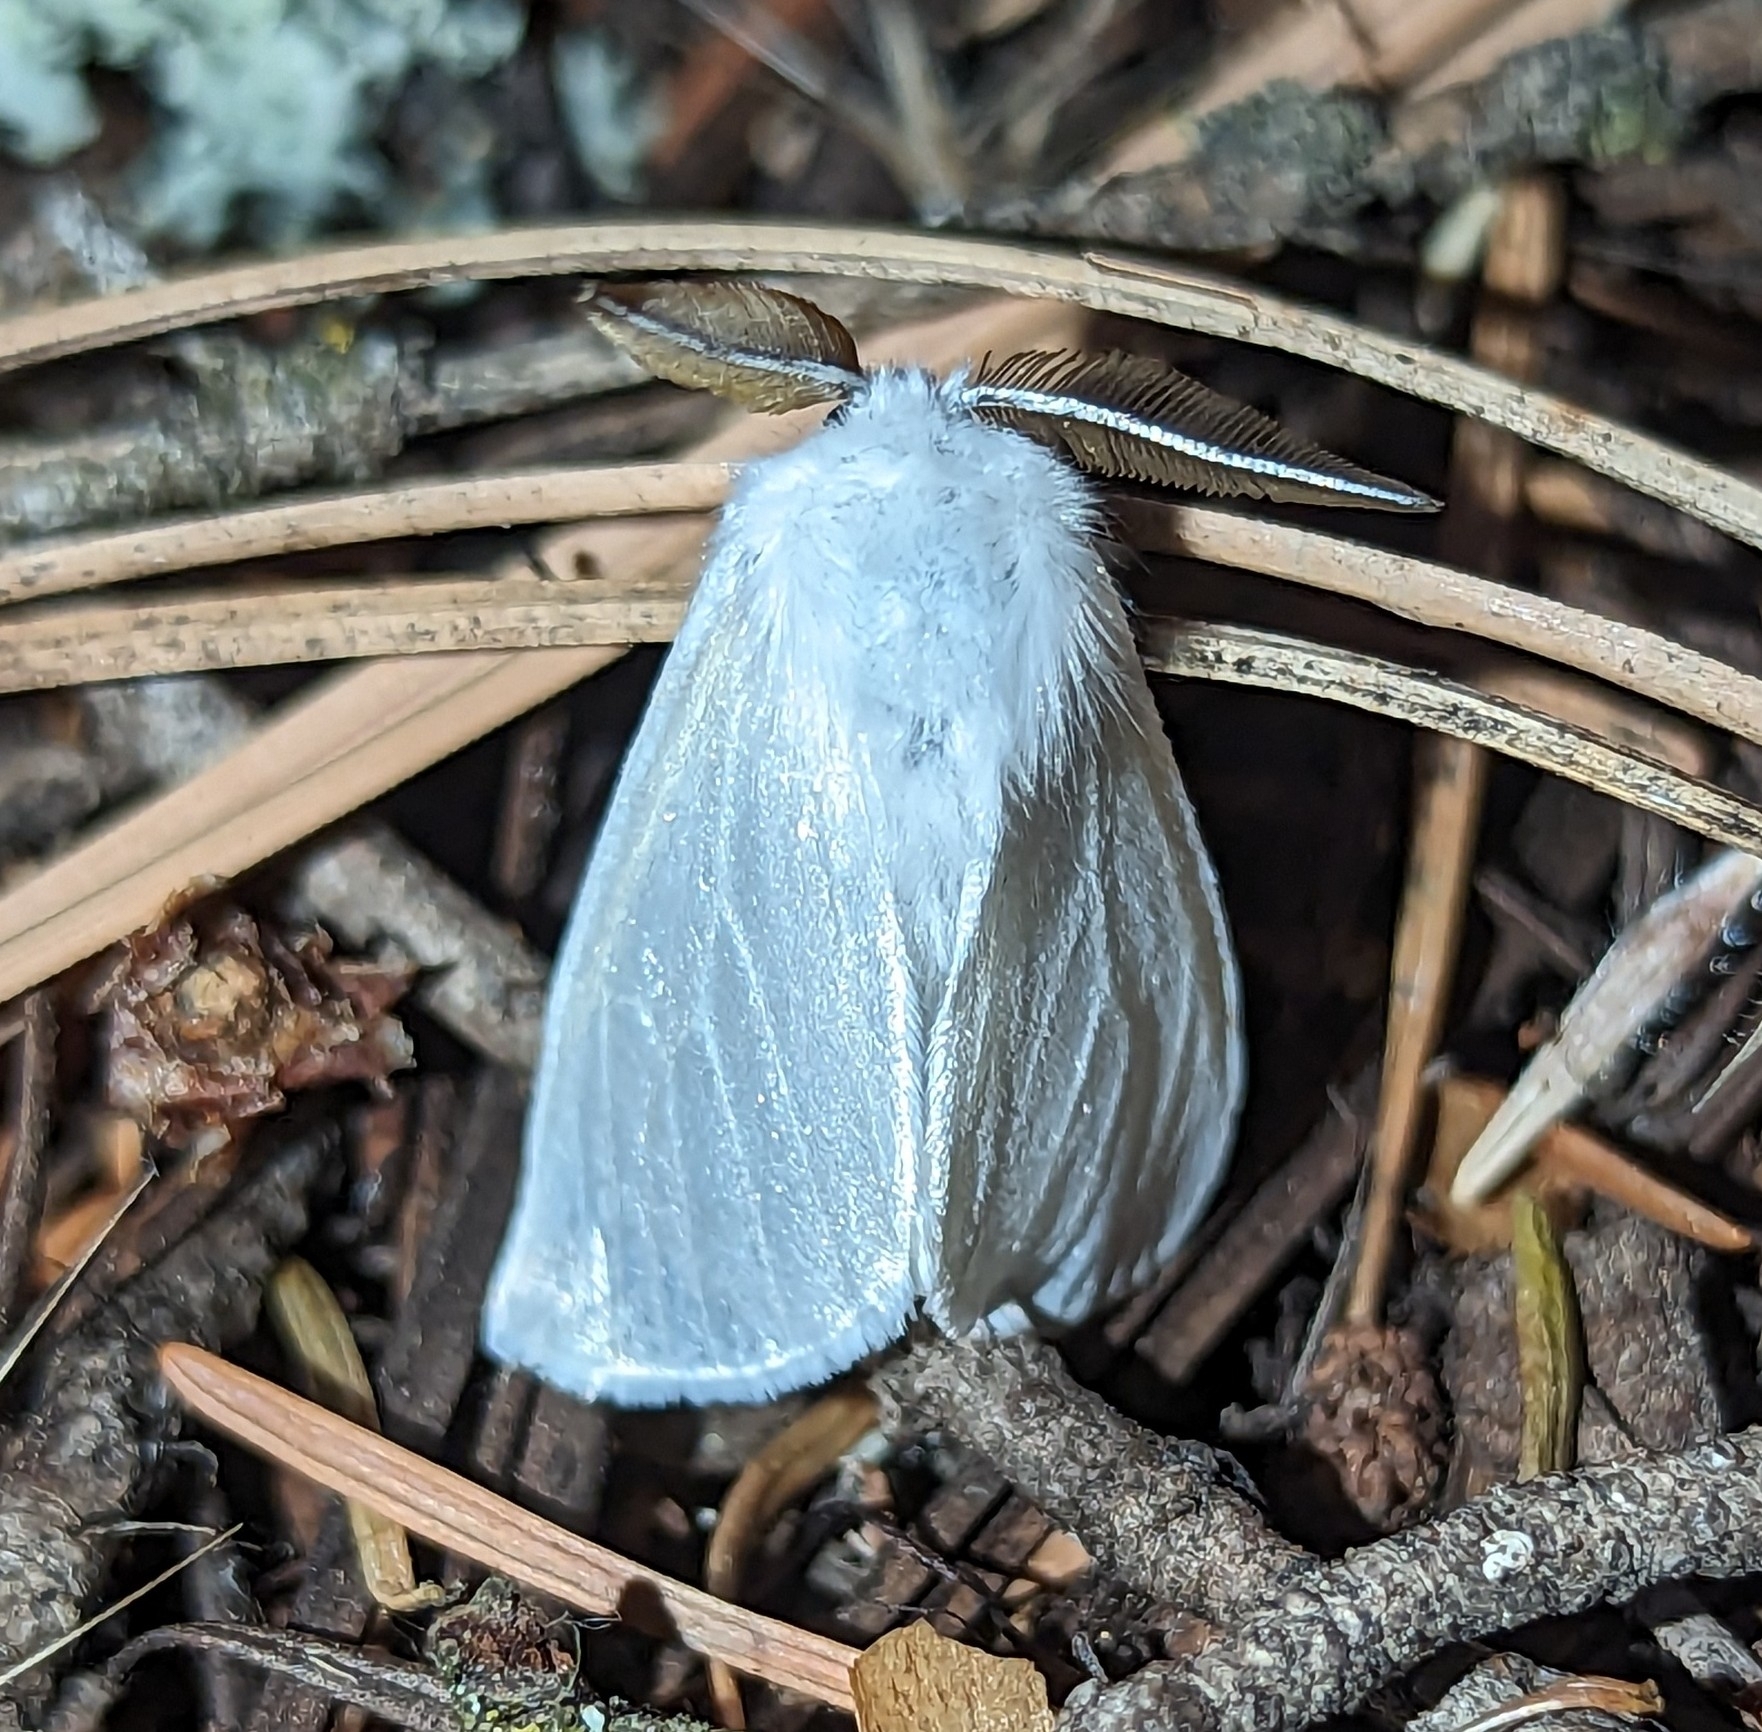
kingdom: Animalia
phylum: Arthropoda
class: Insecta
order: Lepidoptera
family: Erebidae
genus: Leucoma
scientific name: Leucoma salicis
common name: White satin moth
